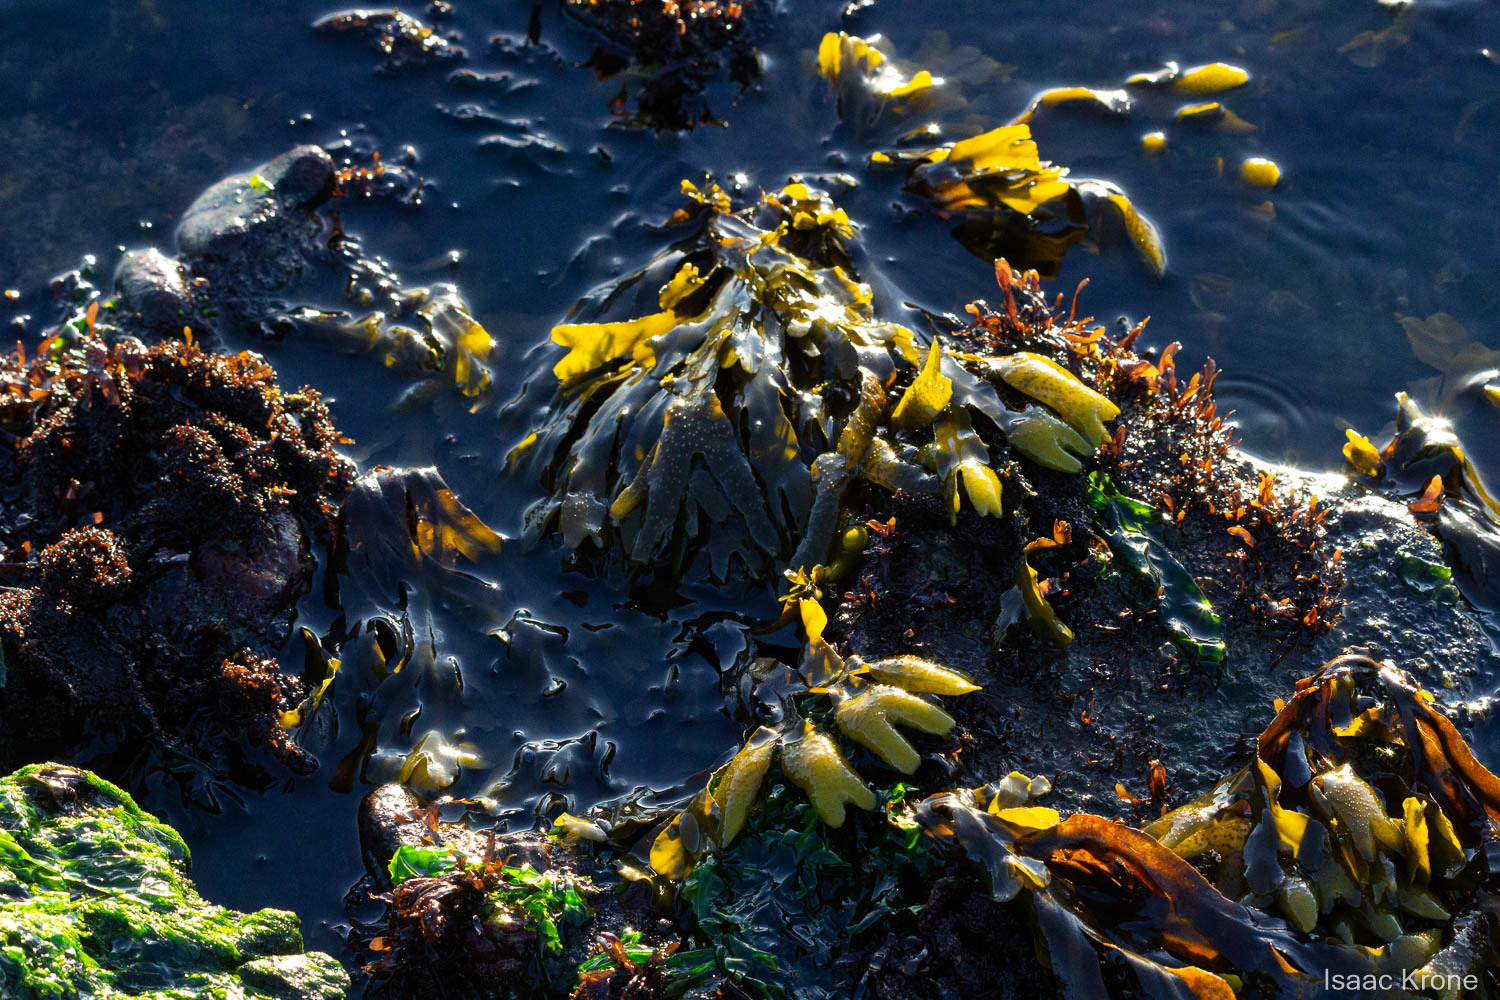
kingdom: Chromista
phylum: Ochrophyta
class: Phaeophyceae
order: Fucales
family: Fucaceae
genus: Fucus
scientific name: Fucus distichus
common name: Rockweed
